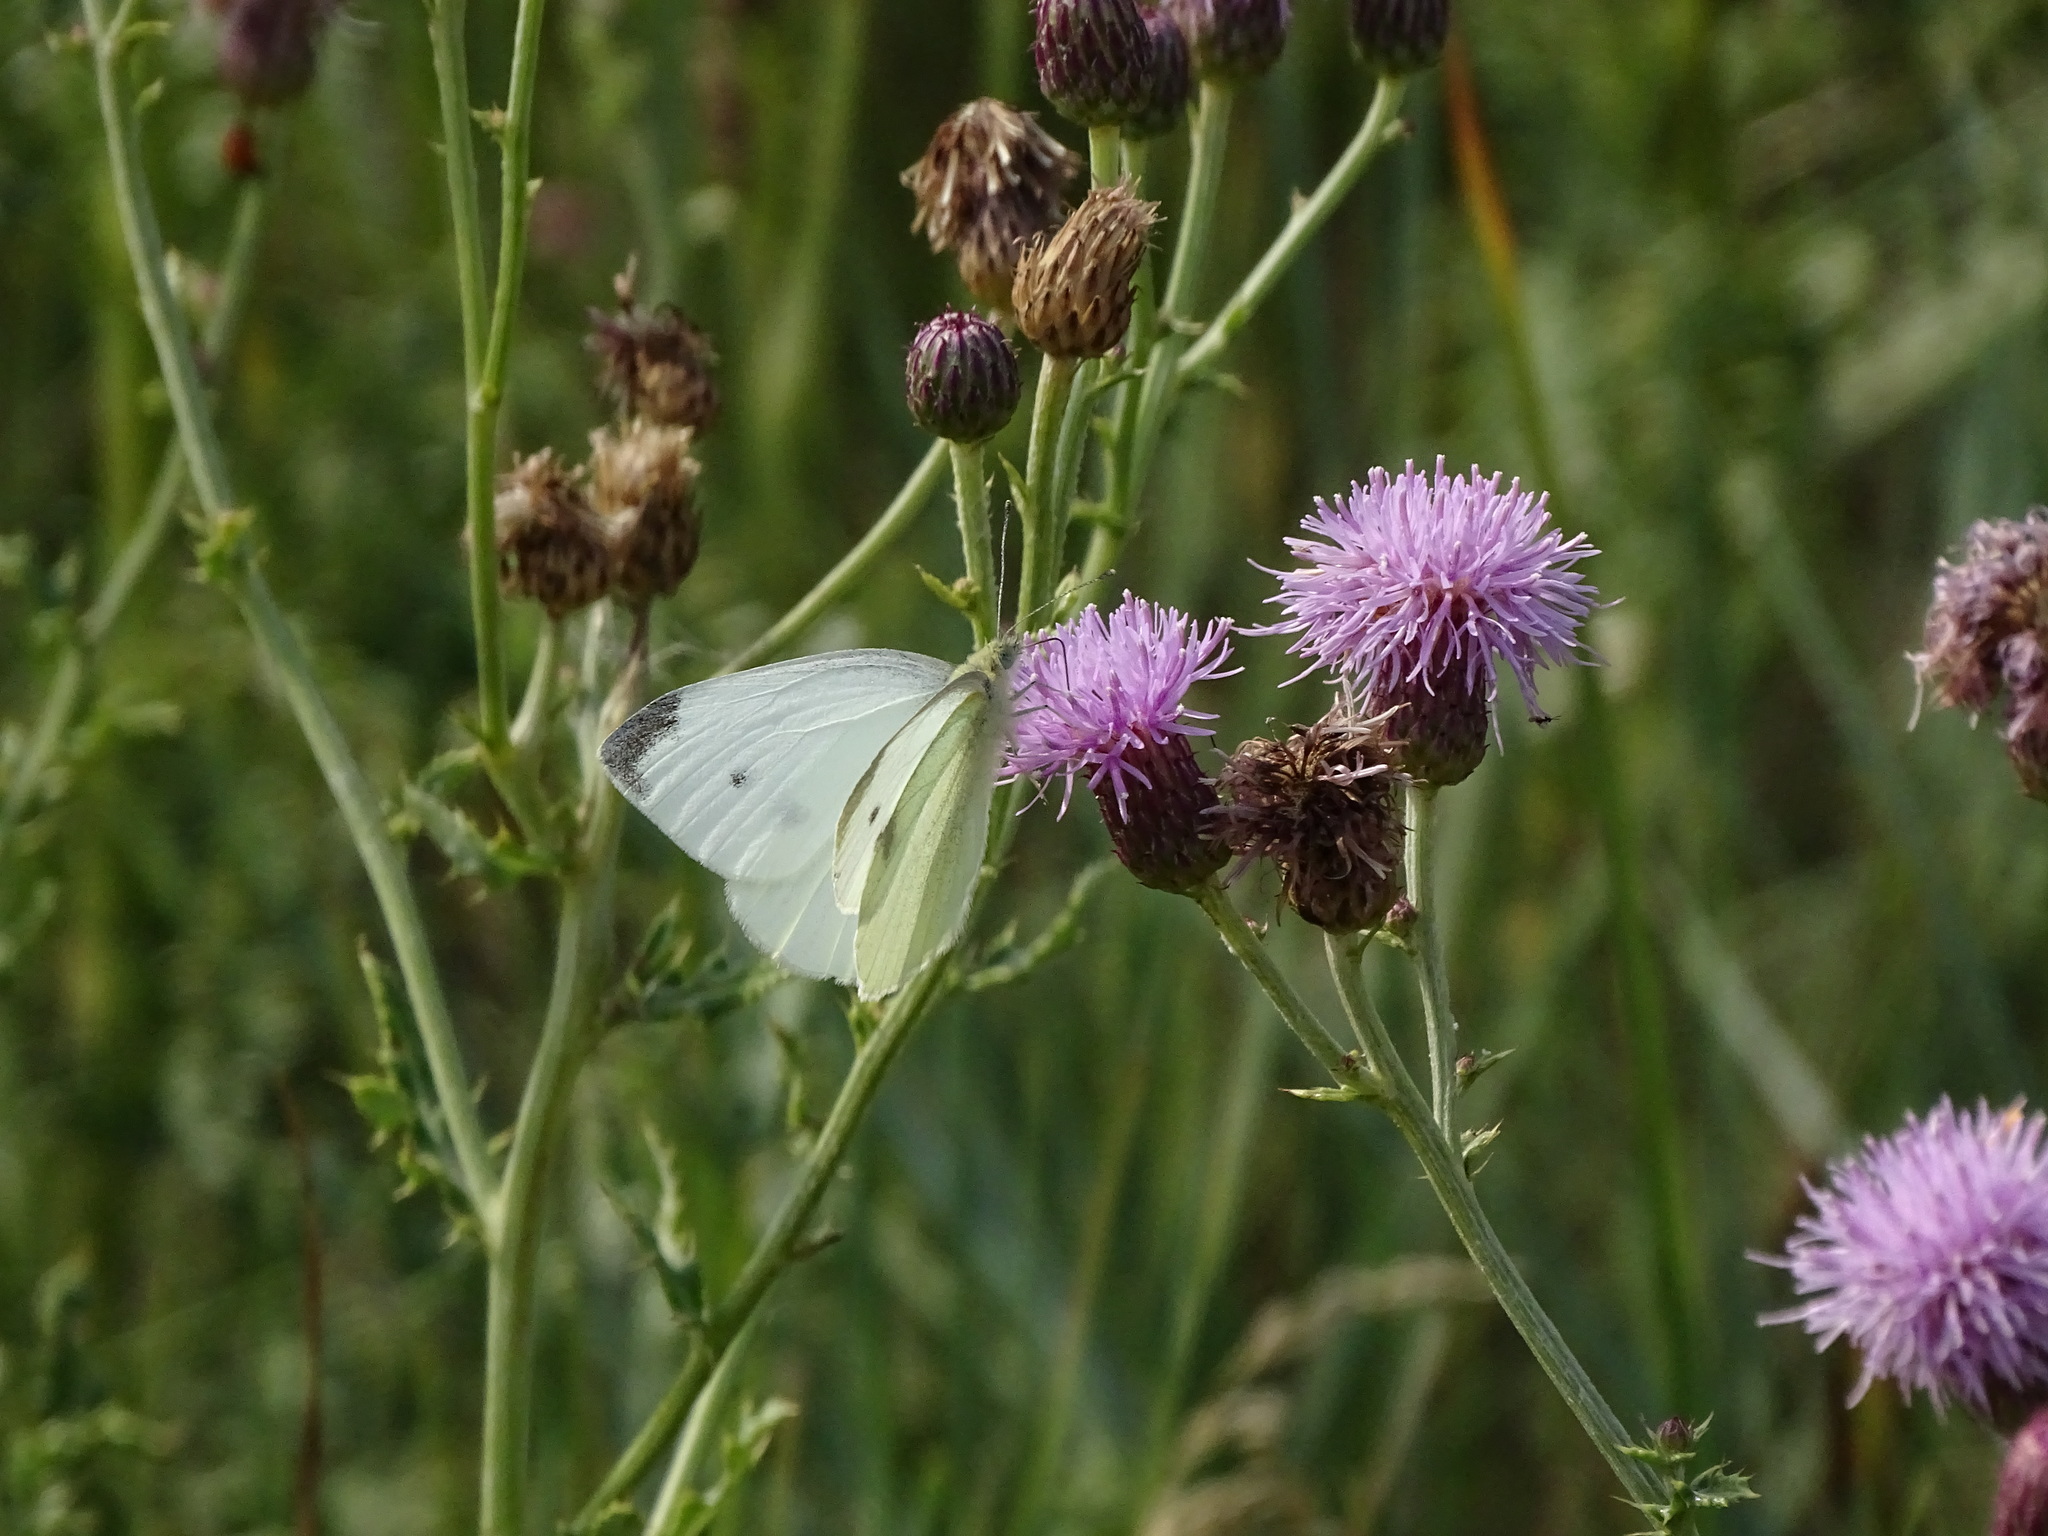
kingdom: Animalia
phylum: Arthropoda
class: Insecta
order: Lepidoptera
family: Pieridae
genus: Pieris
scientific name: Pieris rapae
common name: Small white
